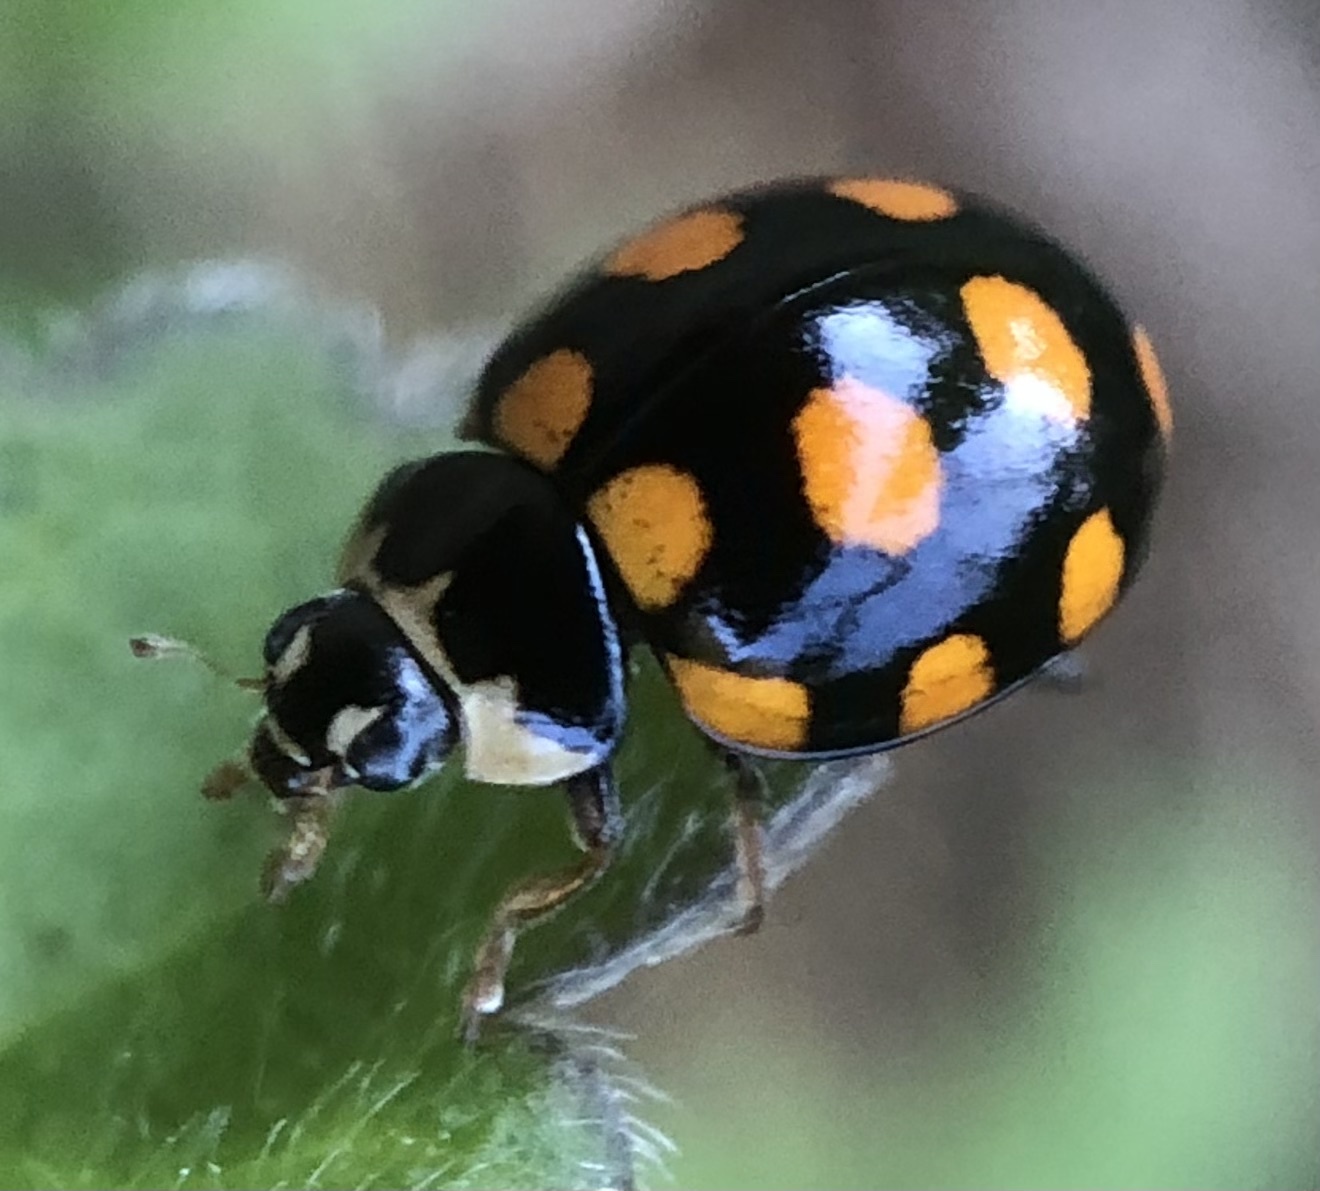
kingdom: Animalia
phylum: Arthropoda
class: Insecta
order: Coleoptera
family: Coccinellidae
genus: Coccinula
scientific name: Coccinula quatuordecimpustulata
